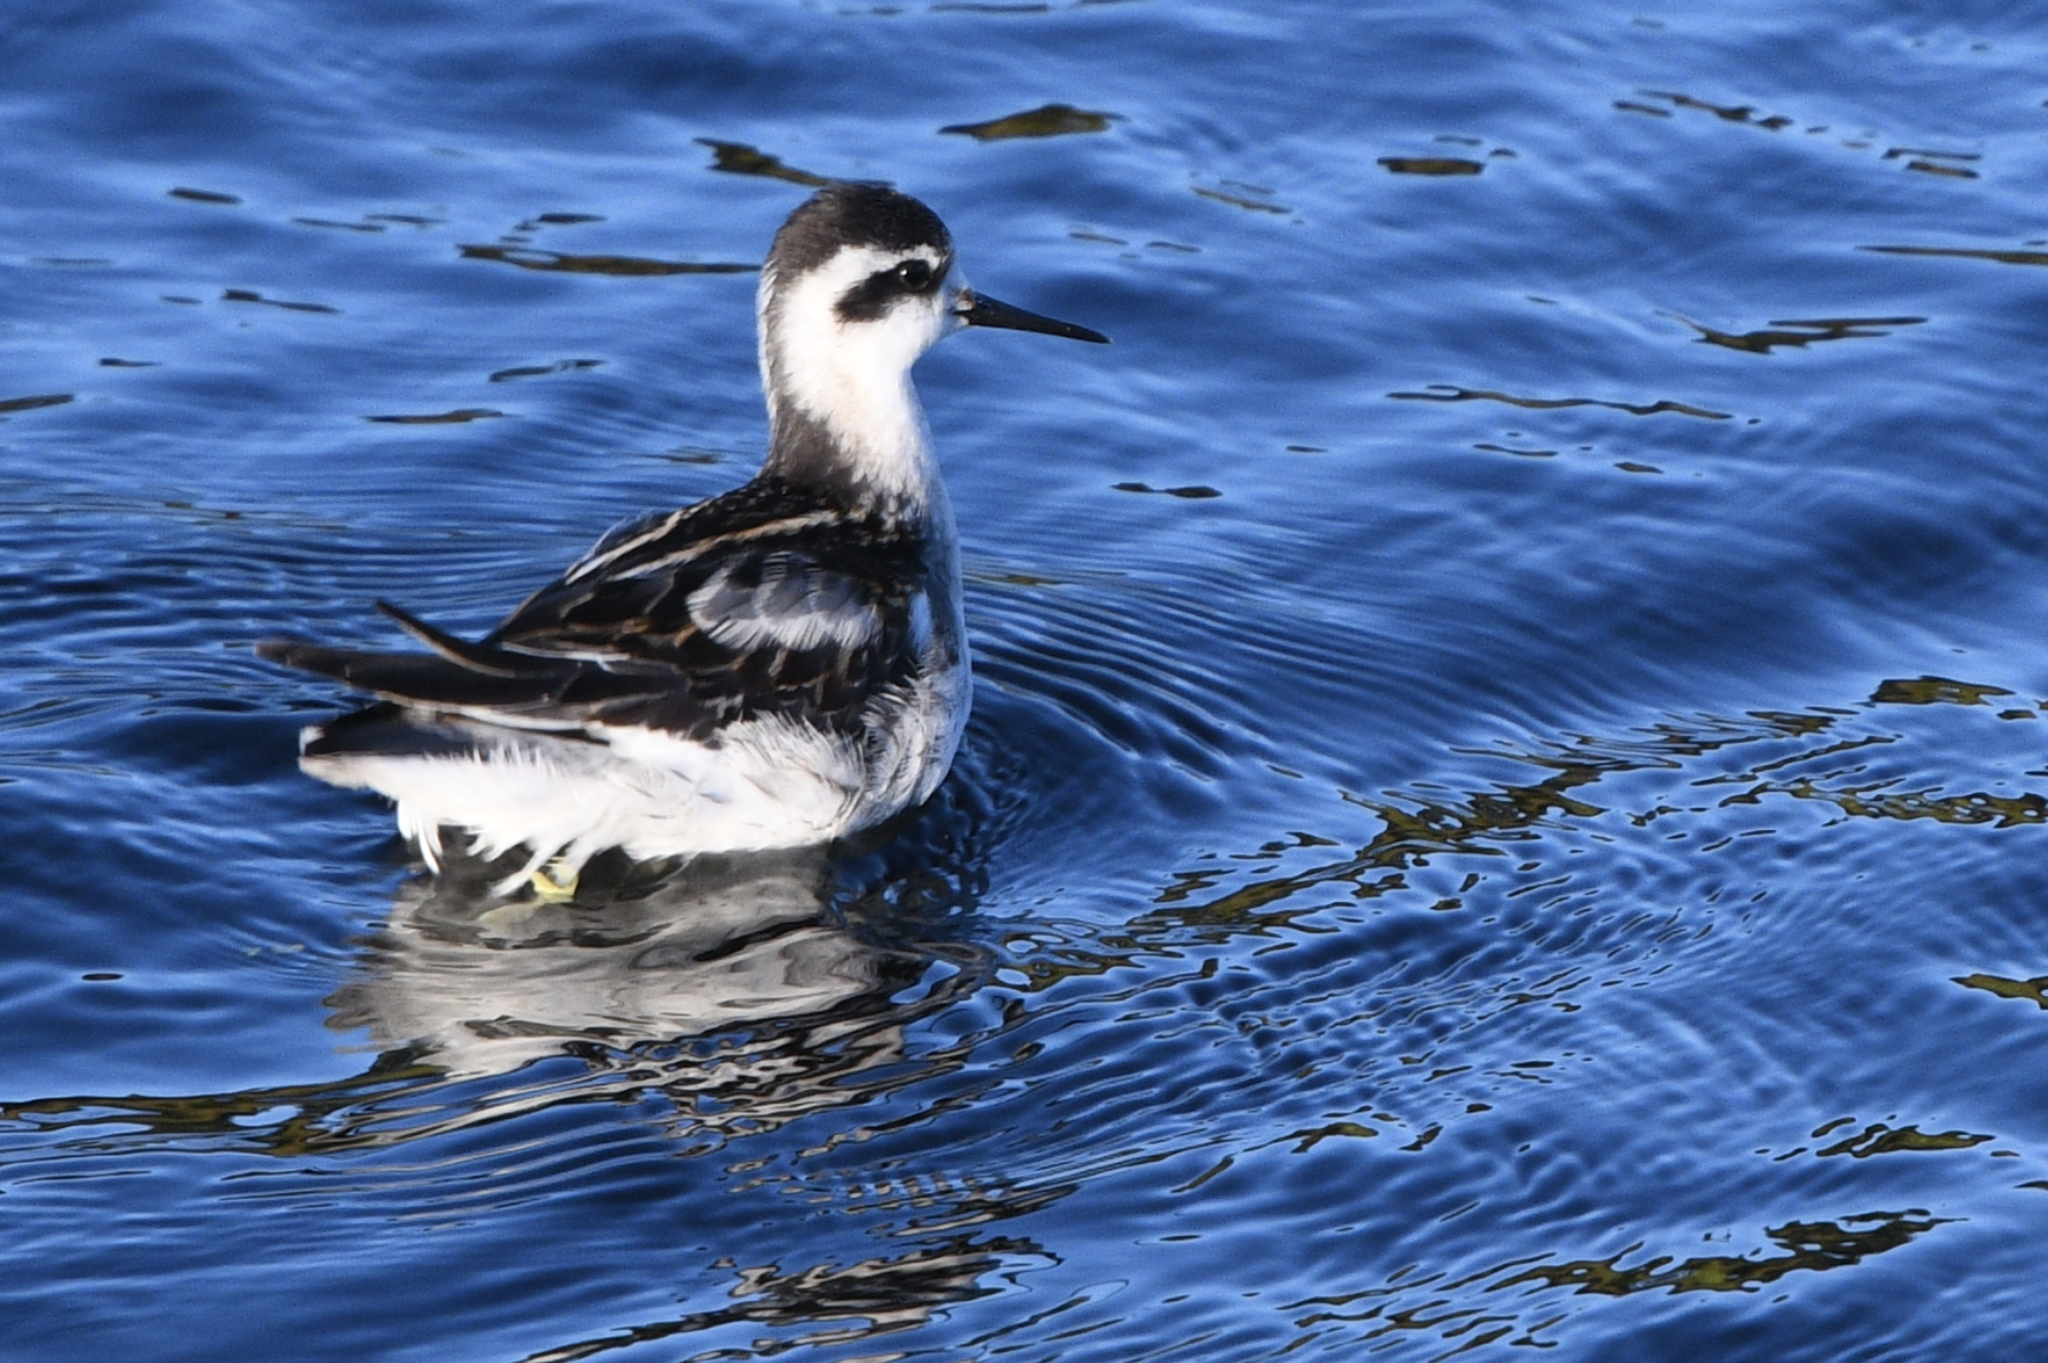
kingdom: Animalia
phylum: Chordata
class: Aves
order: Charadriiformes
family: Scolopacidae
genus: Phalaropus
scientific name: Phalaropus lobatus
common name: Red-necked phalarope
